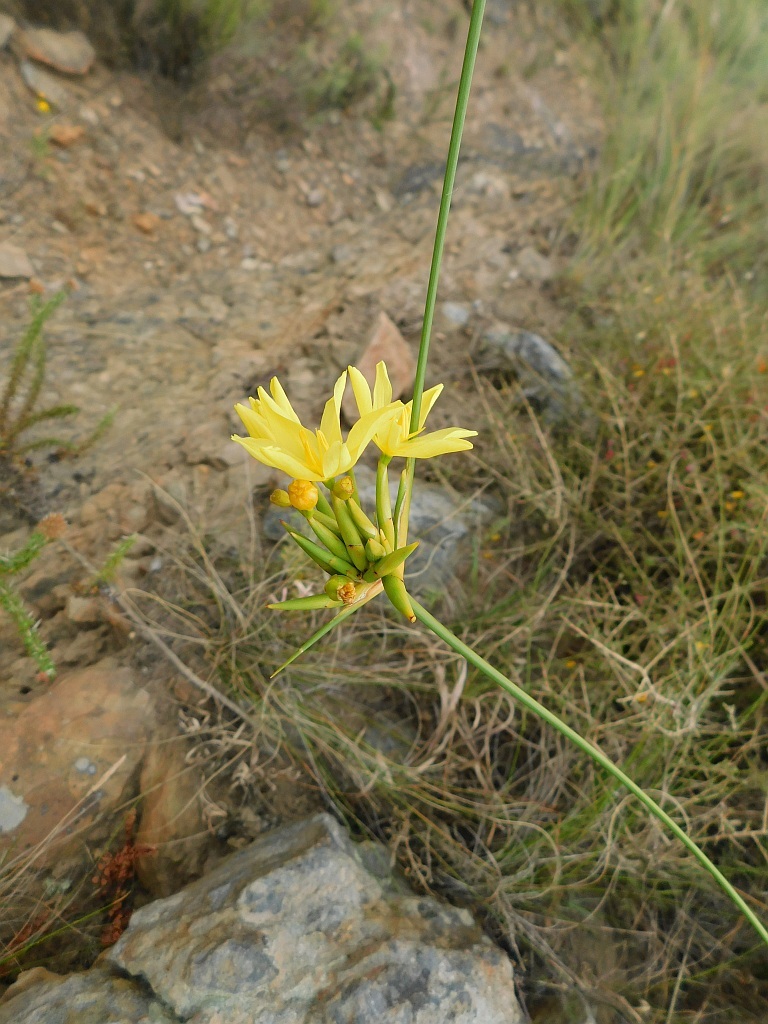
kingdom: Plantae
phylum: Tracheophyta
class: Liliopsida
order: Asparagales
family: Iridaceae
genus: Bobartia
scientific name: Bobartia indica
